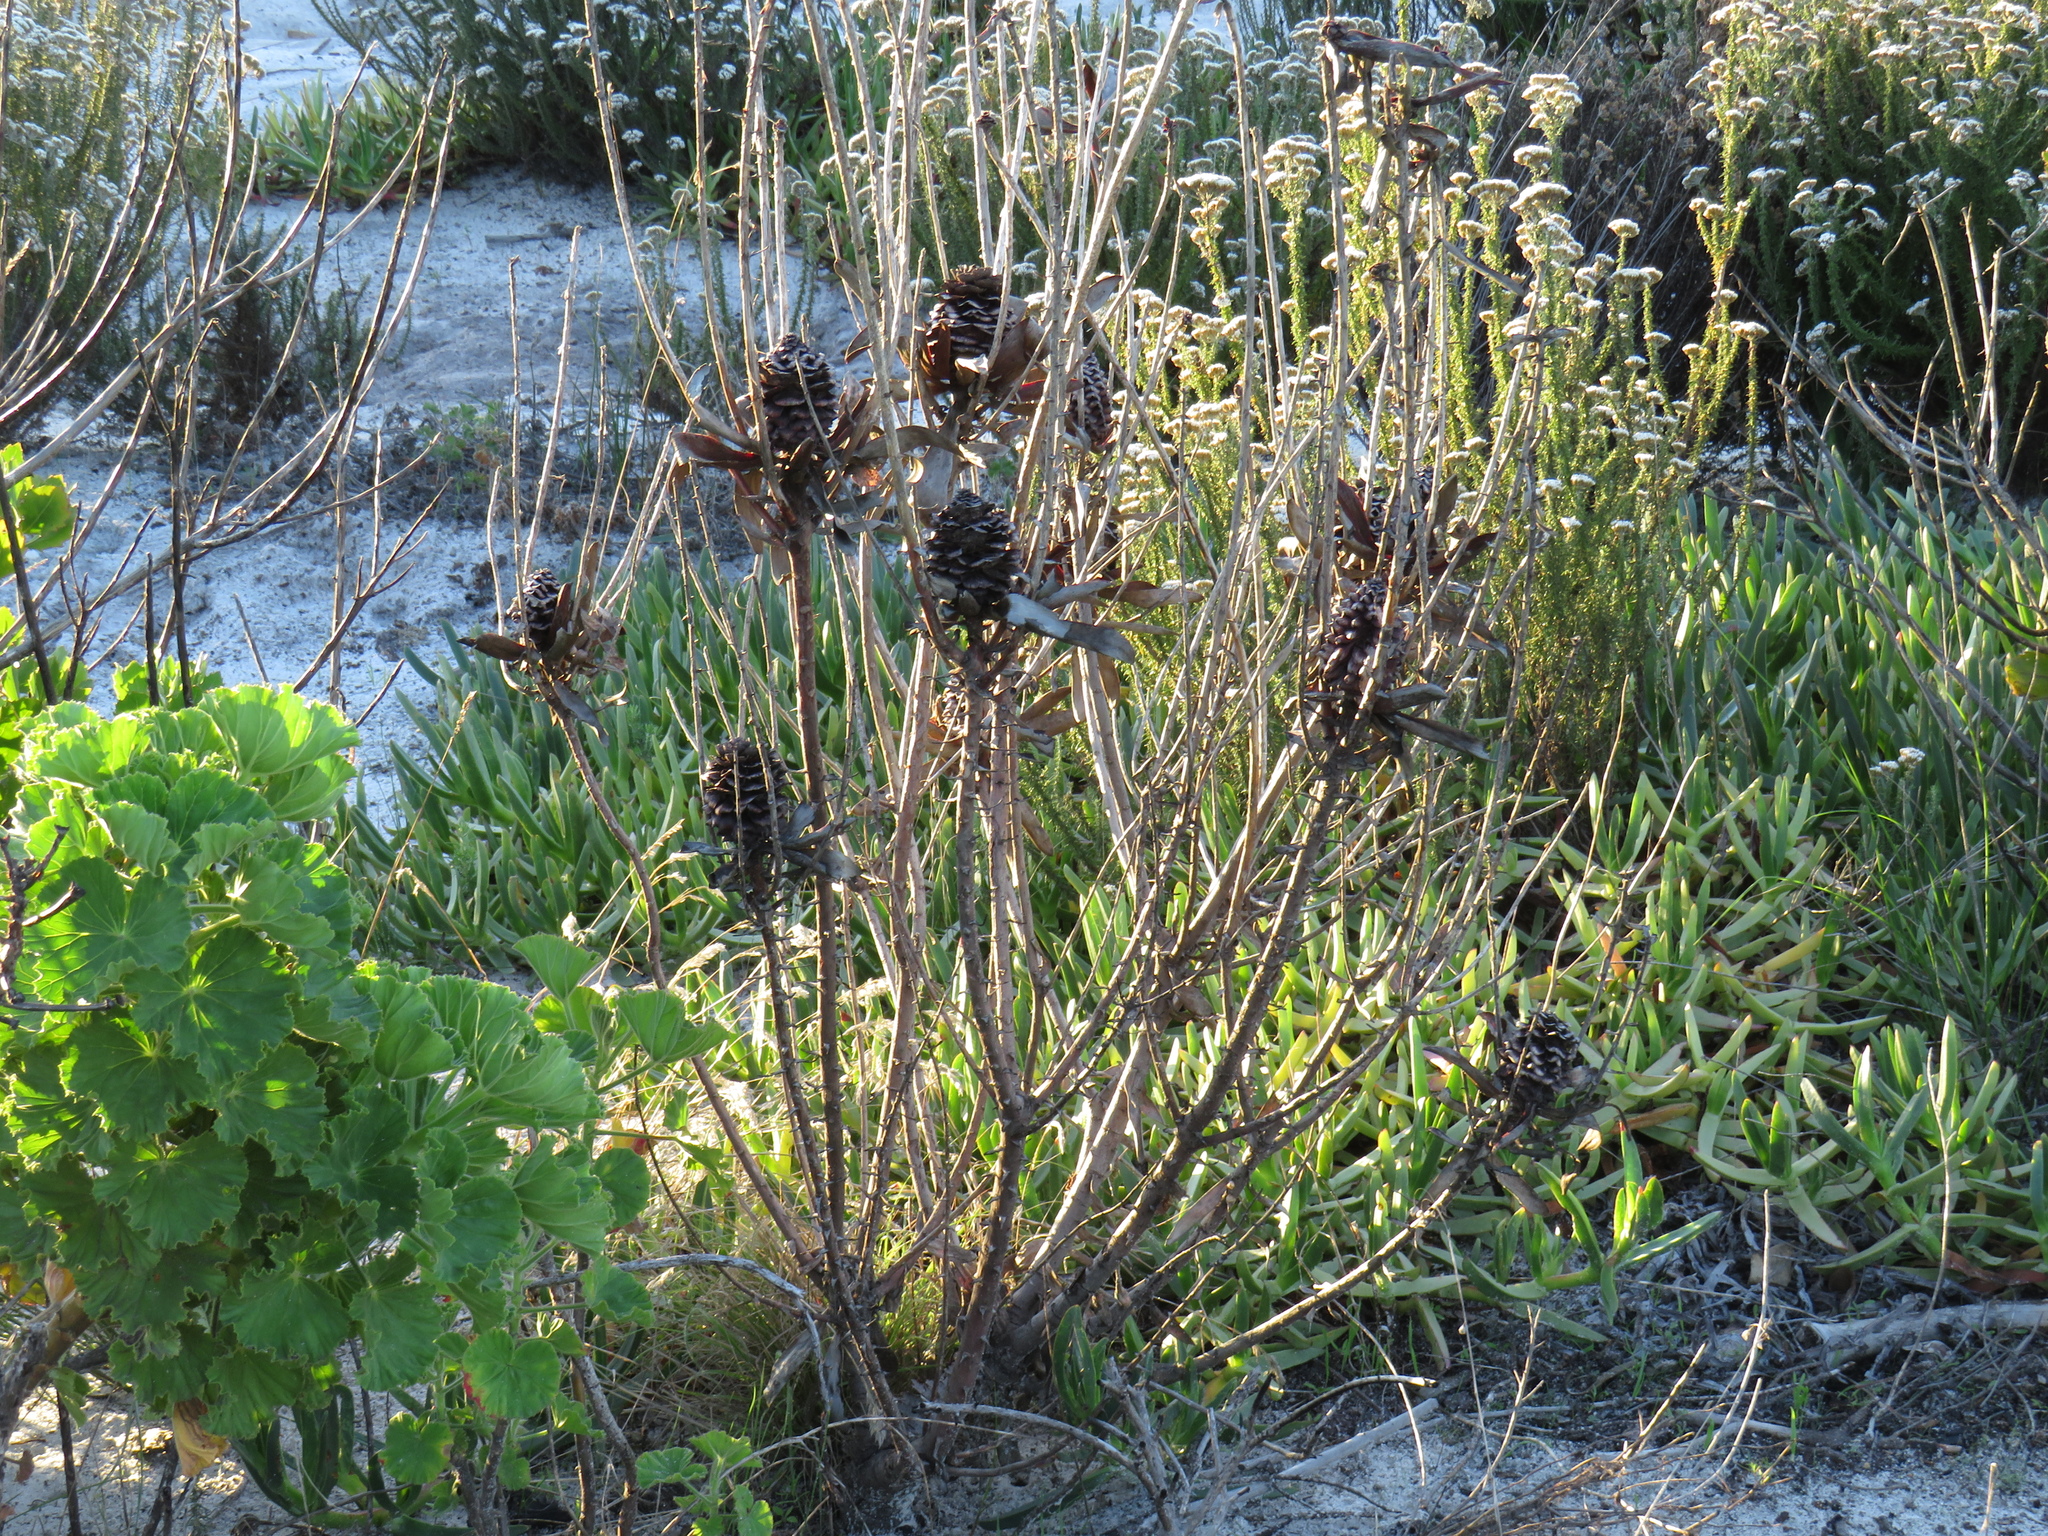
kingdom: Plantae
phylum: Tracheophyta
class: Magnoliopsida
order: Proteales
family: Proteaceae
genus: Leucadendron
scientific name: Leucadendron laureolum
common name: Golden sunshinebush
